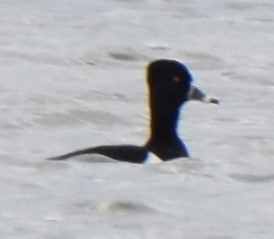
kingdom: Animalia
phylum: Chordata
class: Aves
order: Anseriformes
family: Anatidae
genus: Aythya
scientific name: Aythya collaris
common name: Ring-necked duck
